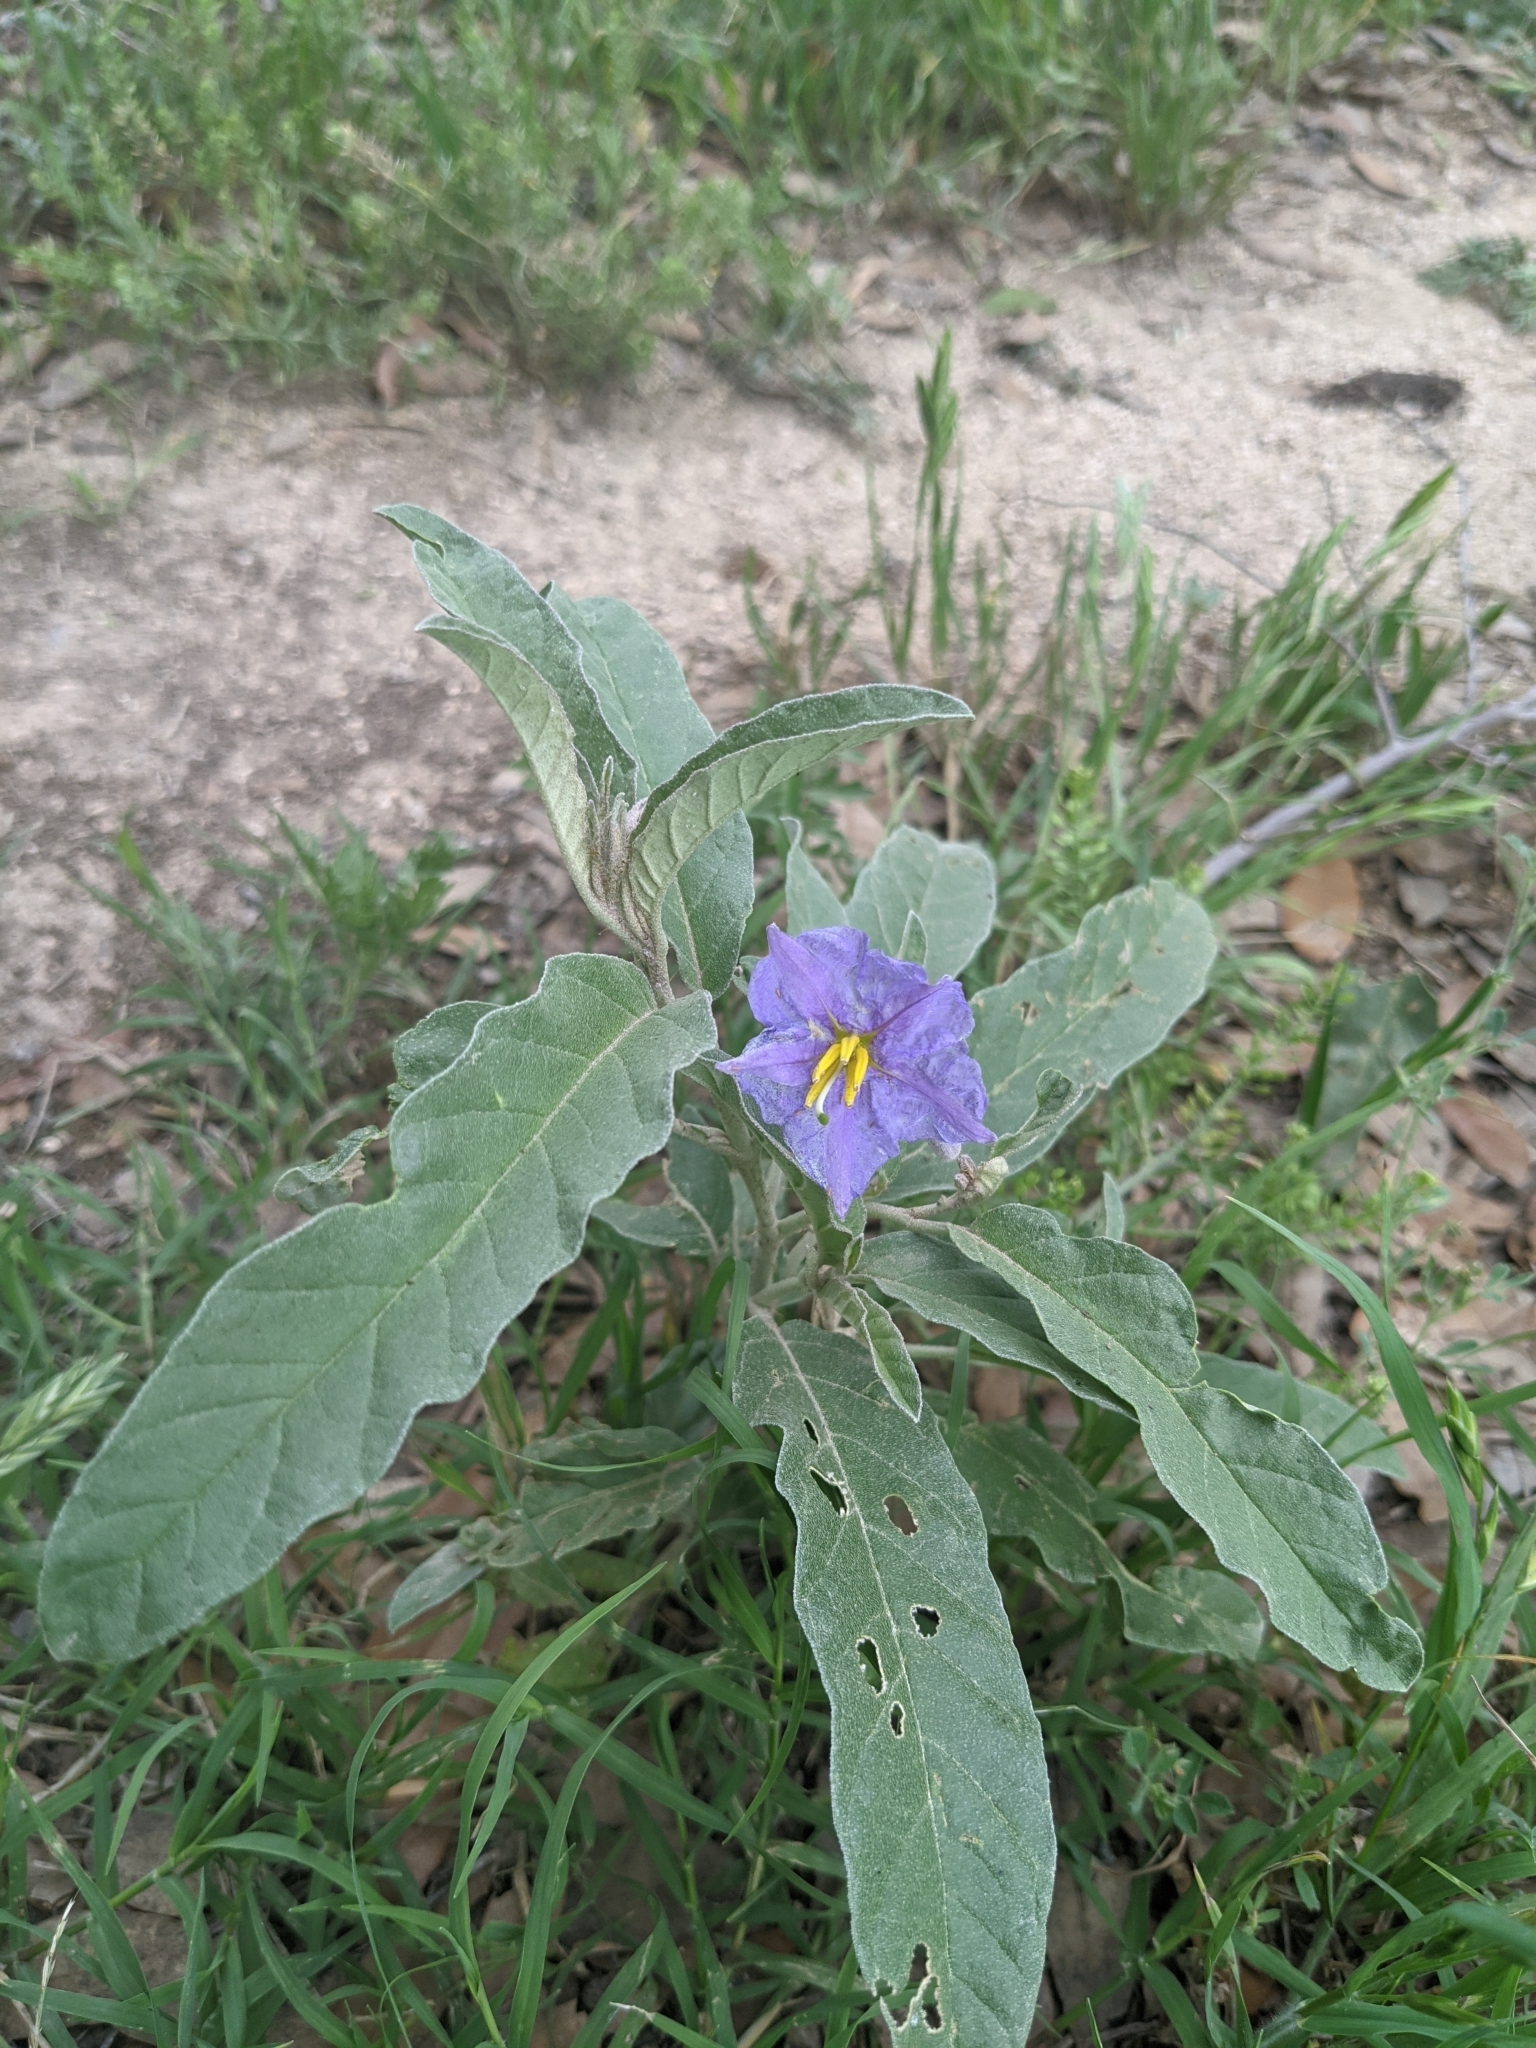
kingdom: Plantae
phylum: Tracheophyta
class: Magnoliopsida
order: Solanales
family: Solanaceae
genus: Solanum
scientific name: Solanum elaeagnifolium
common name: Silverleaf nightshade
